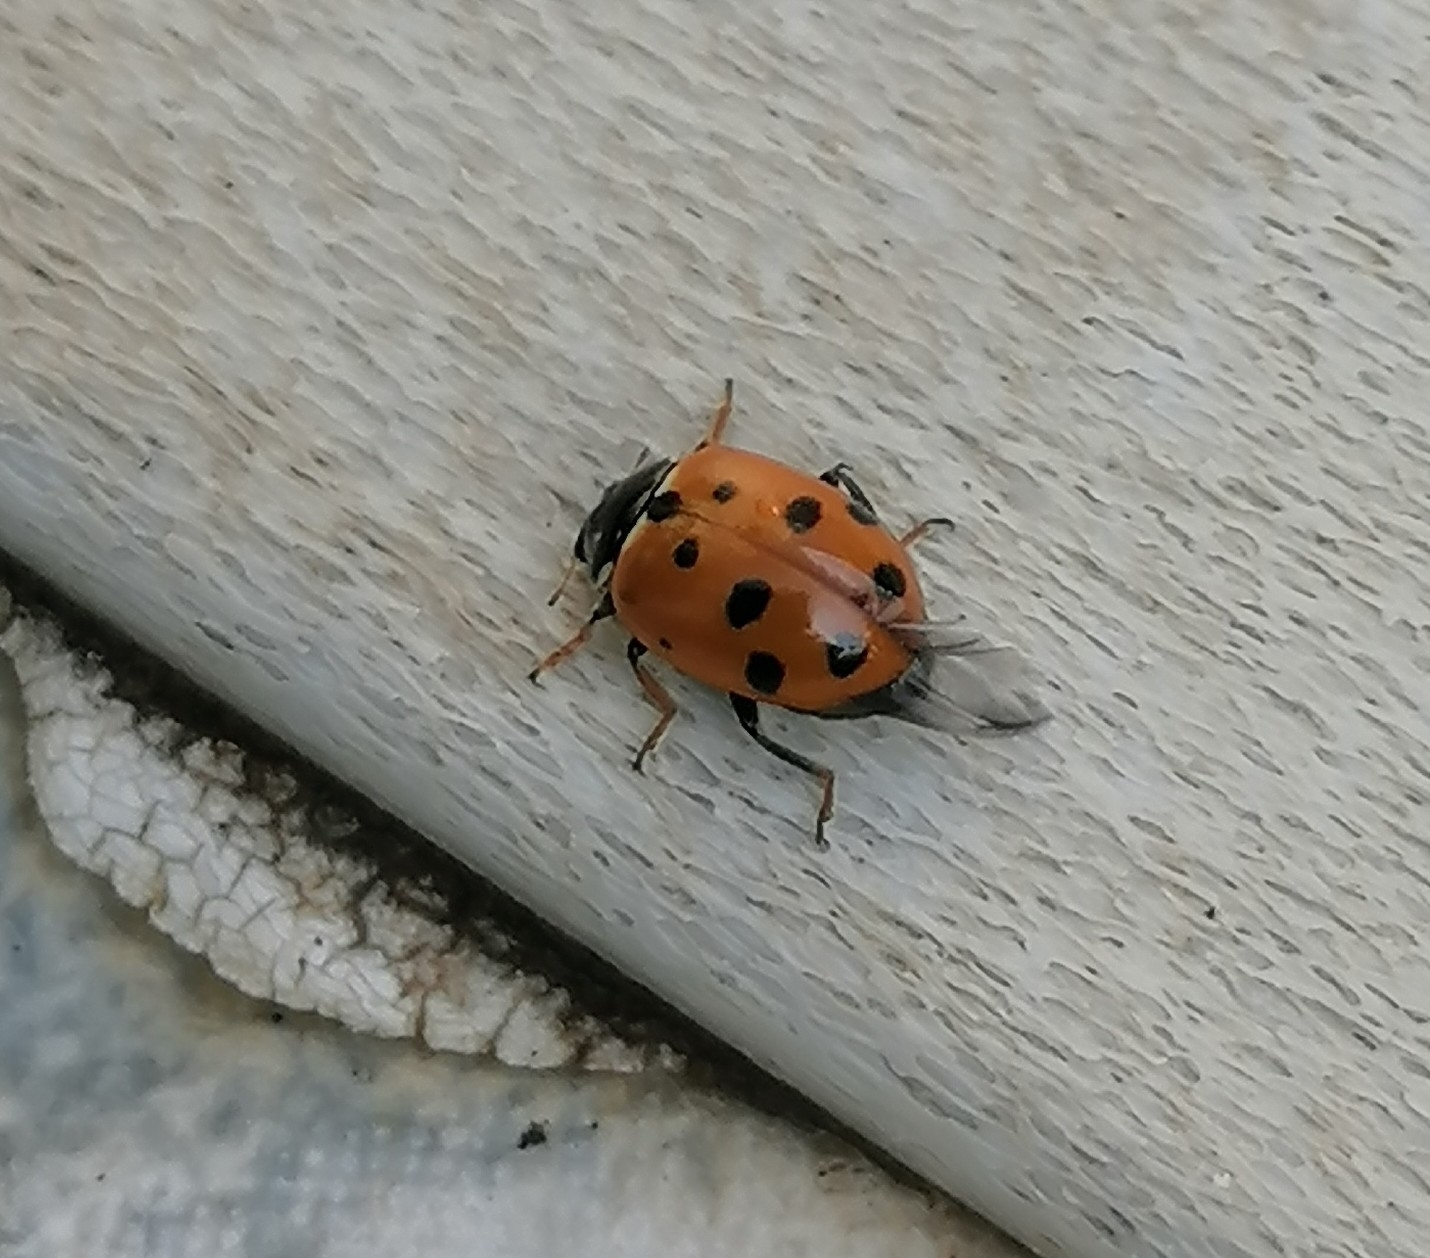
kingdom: Animalia
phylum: Arthropoda
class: Insecta
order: Coleoptera
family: Coccinellidae
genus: Hippodamia
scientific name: Hippodamia variegata
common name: Ladybird beetle
